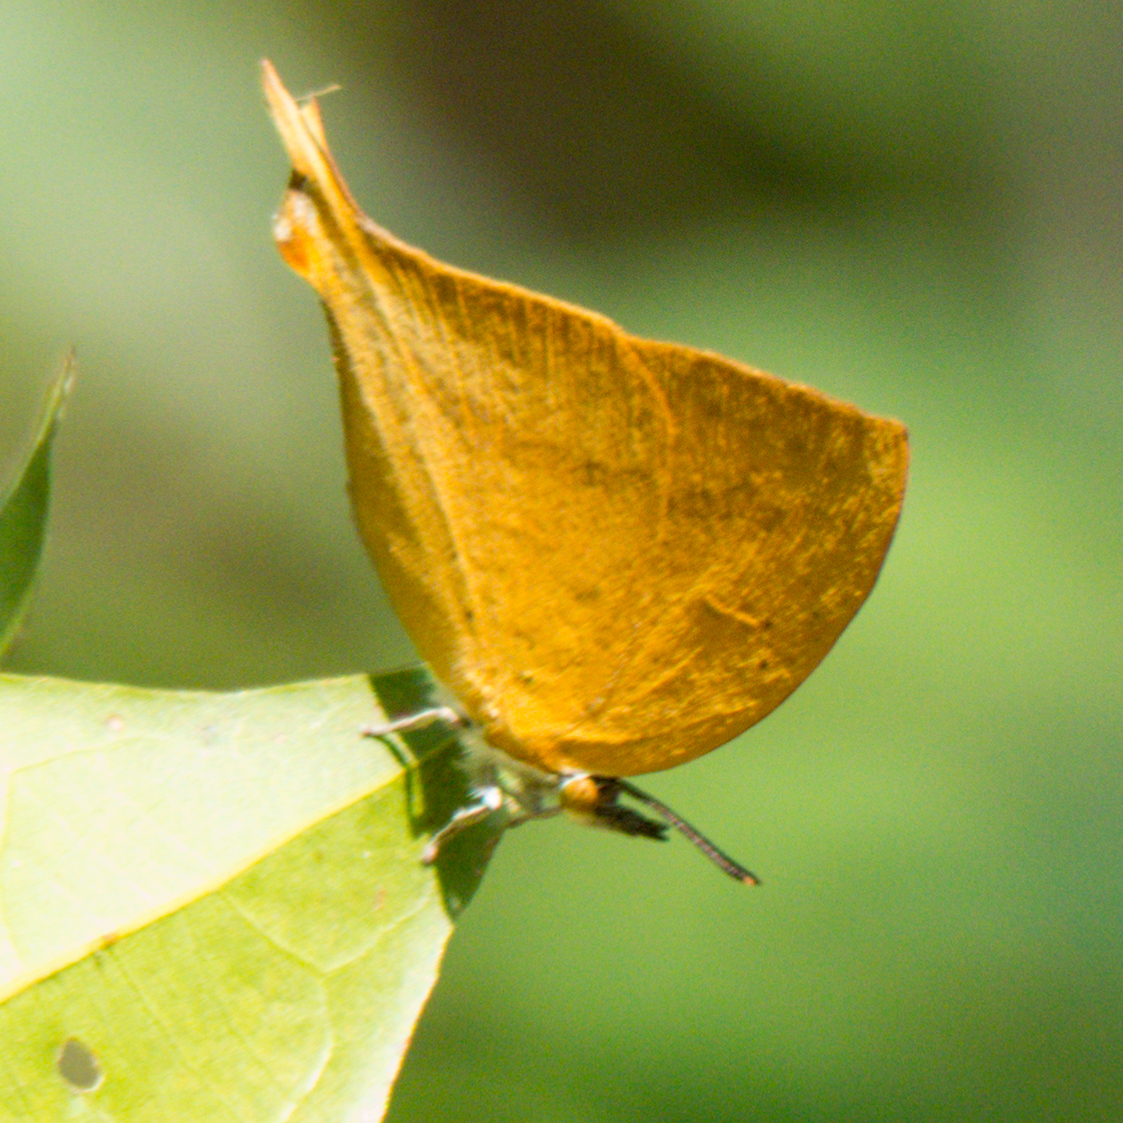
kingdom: Animalia
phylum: Arthropoda
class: Insecta
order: Lepidoptera
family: Lycaenidae
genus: Loxura
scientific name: Loxura atymnus
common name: Common yamfly
